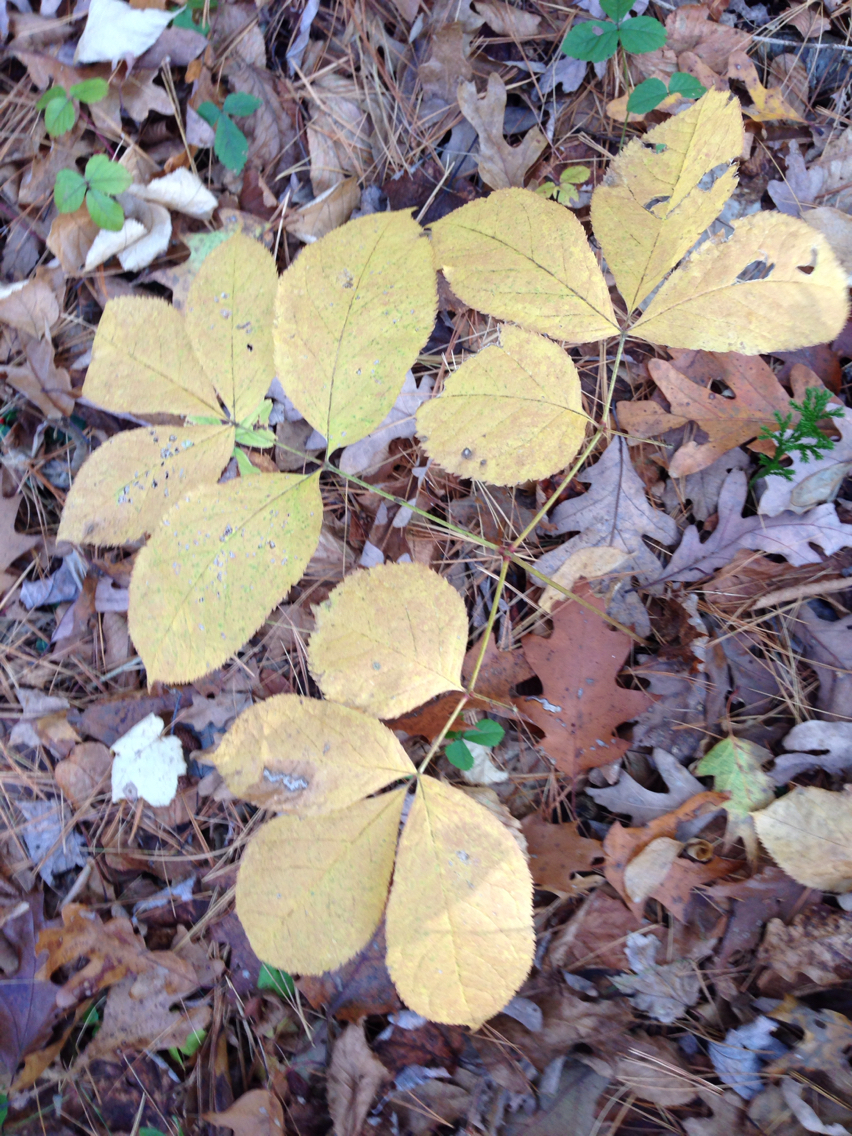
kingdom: Plantae
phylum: Tracheophyta
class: Magnoliopsida
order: Apiales
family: Araliaceae
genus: Aralia
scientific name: Aralia nudicaulis
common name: Wild sarsaparilla
